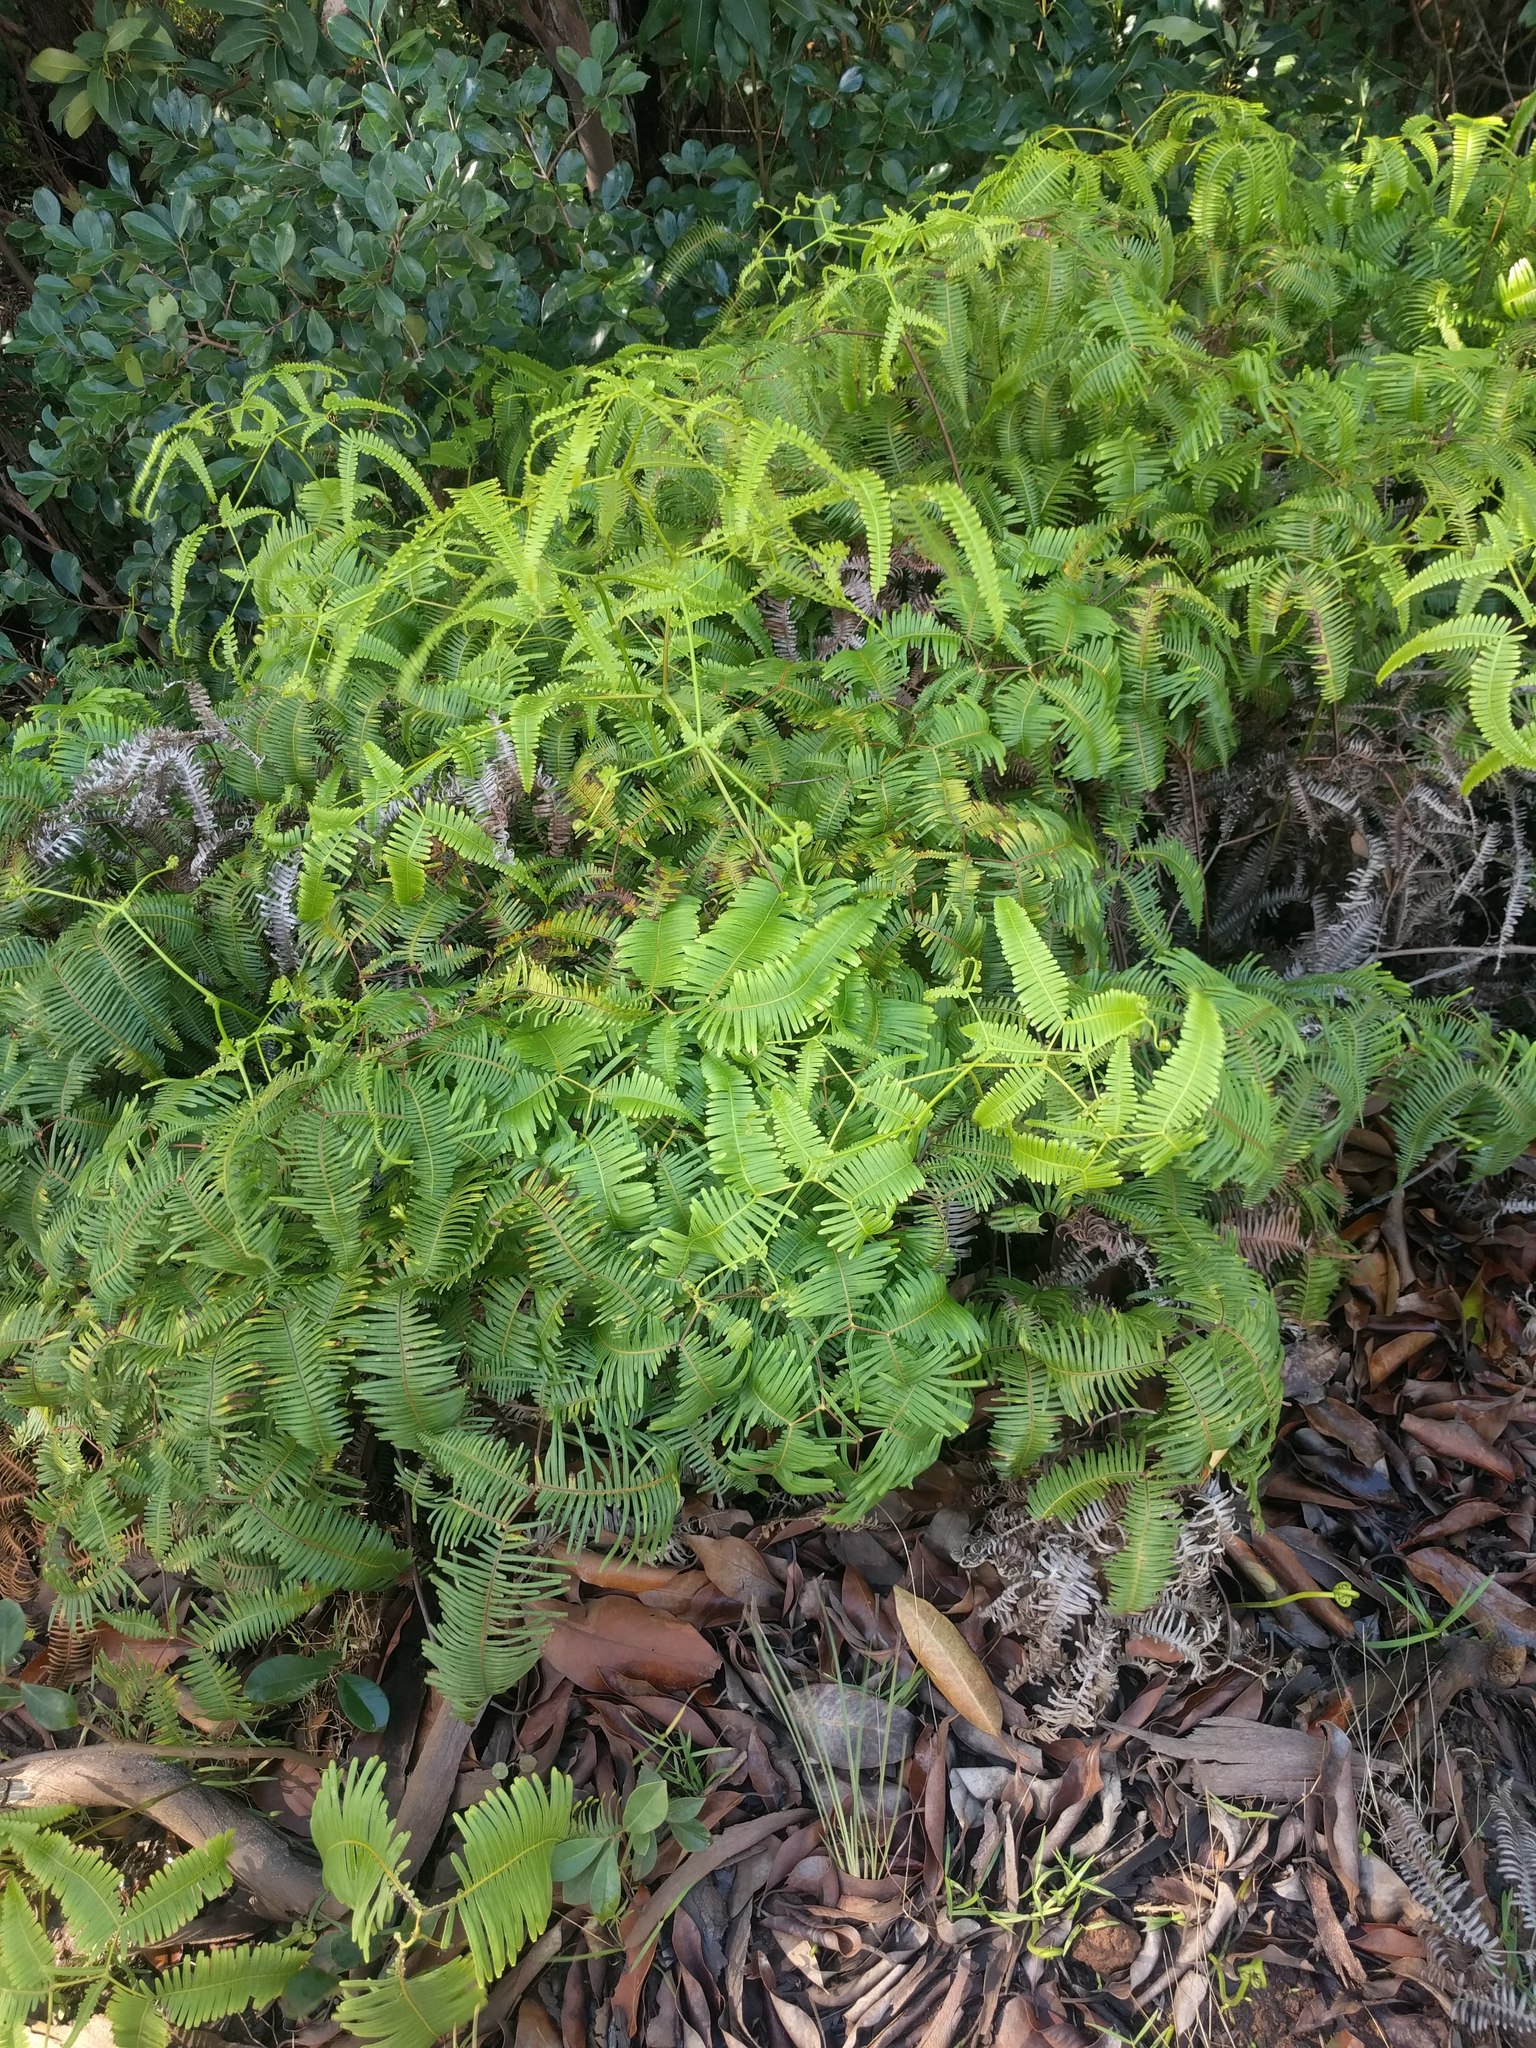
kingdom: Plantae
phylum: Tracheophyta
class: Polypodiopsida
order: Gleicheniales
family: Gleicheniaceae
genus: Dicranopteris
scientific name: Dicranopteris linearis
